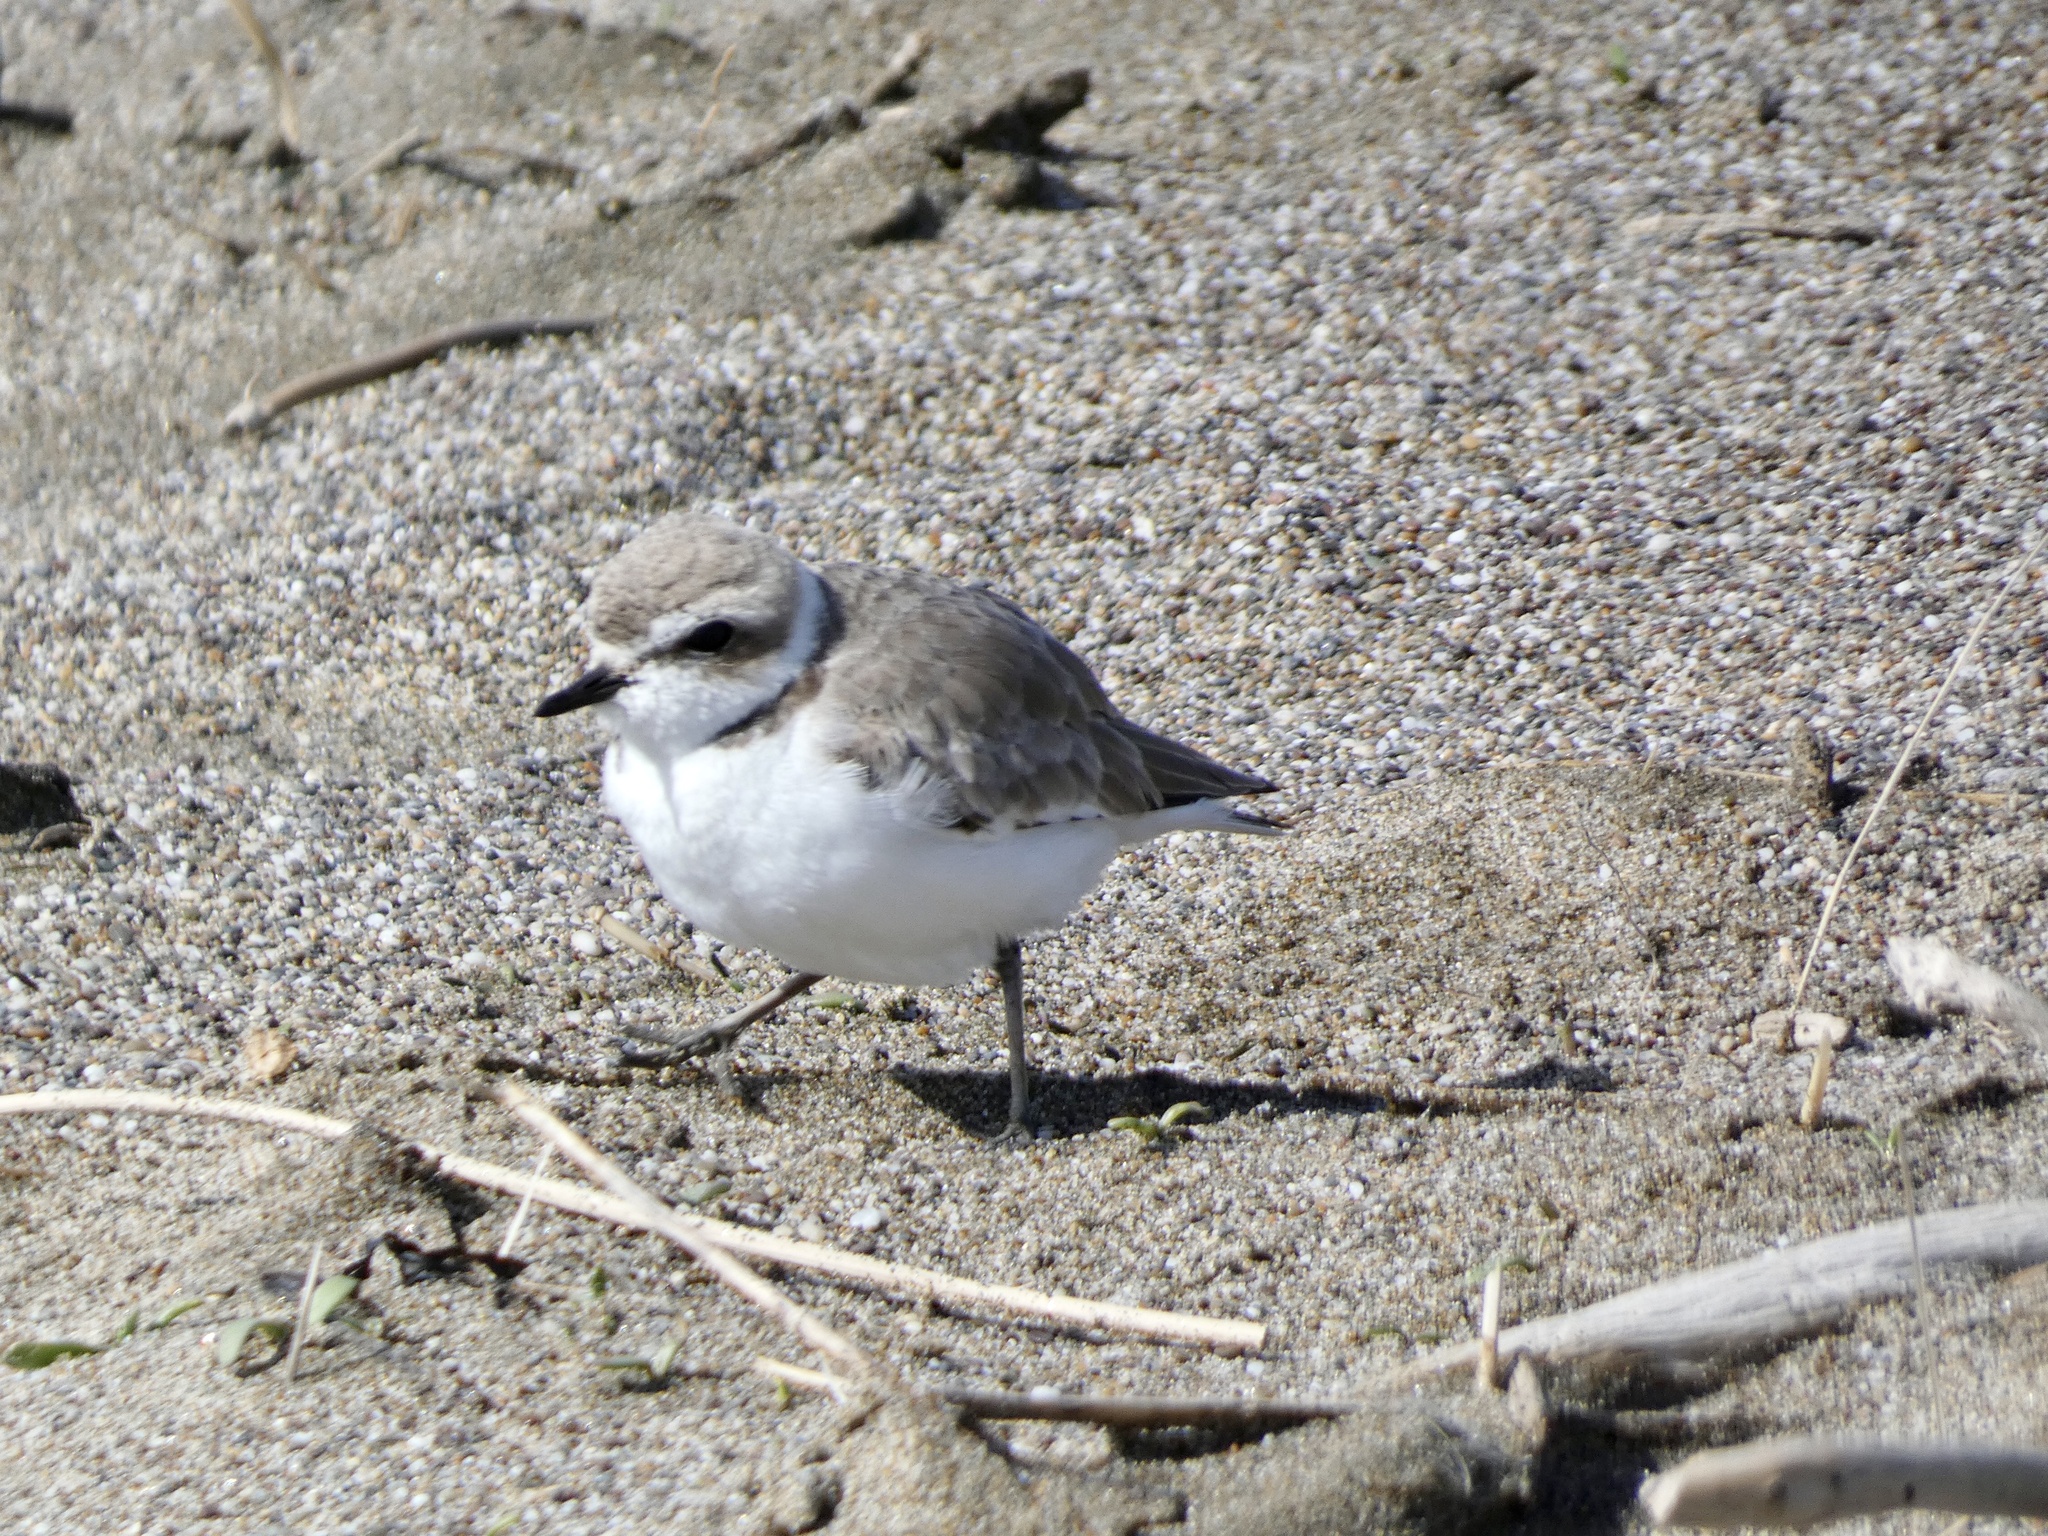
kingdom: Animalia
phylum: Chordata
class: Aves
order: Charadriiformes
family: Charadriidae
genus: Anarhynchus
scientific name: Anarhynchus
